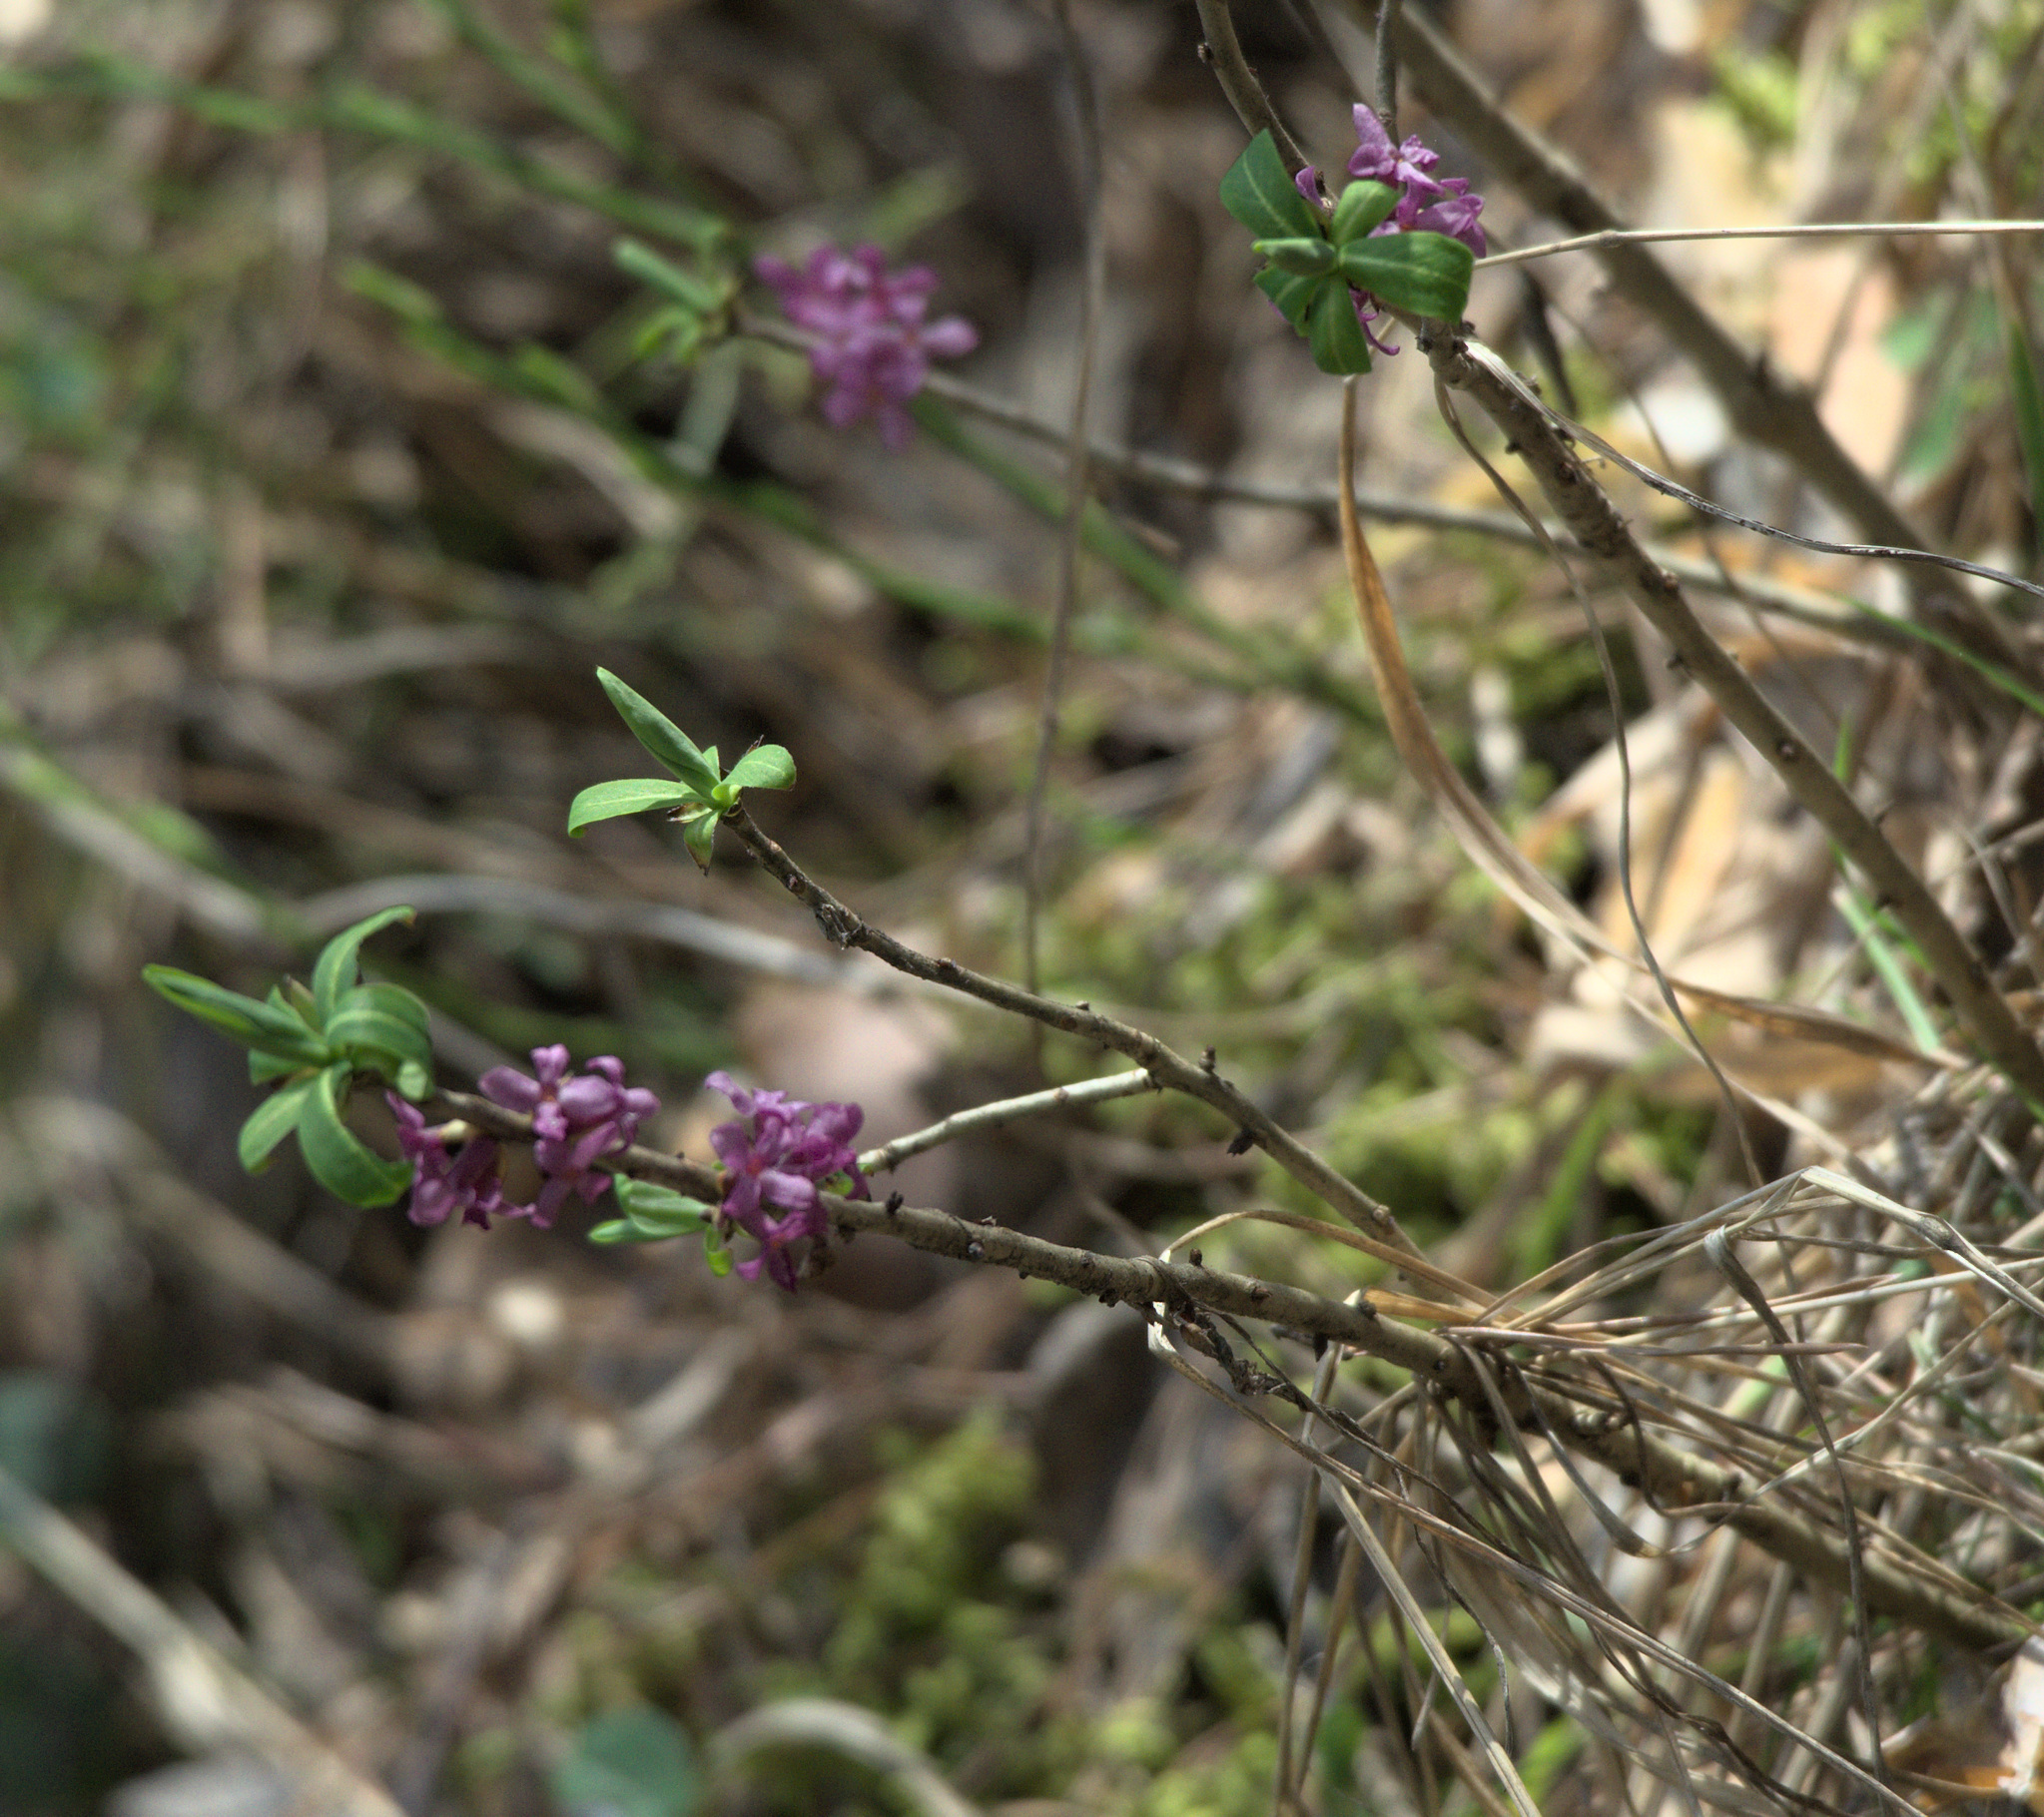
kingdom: Plantae
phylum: Tracheophyta
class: Magnoliopsida
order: Malvales
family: Thymelaeaceae
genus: Daphne
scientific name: Daphne mezereum
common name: Mezereon
